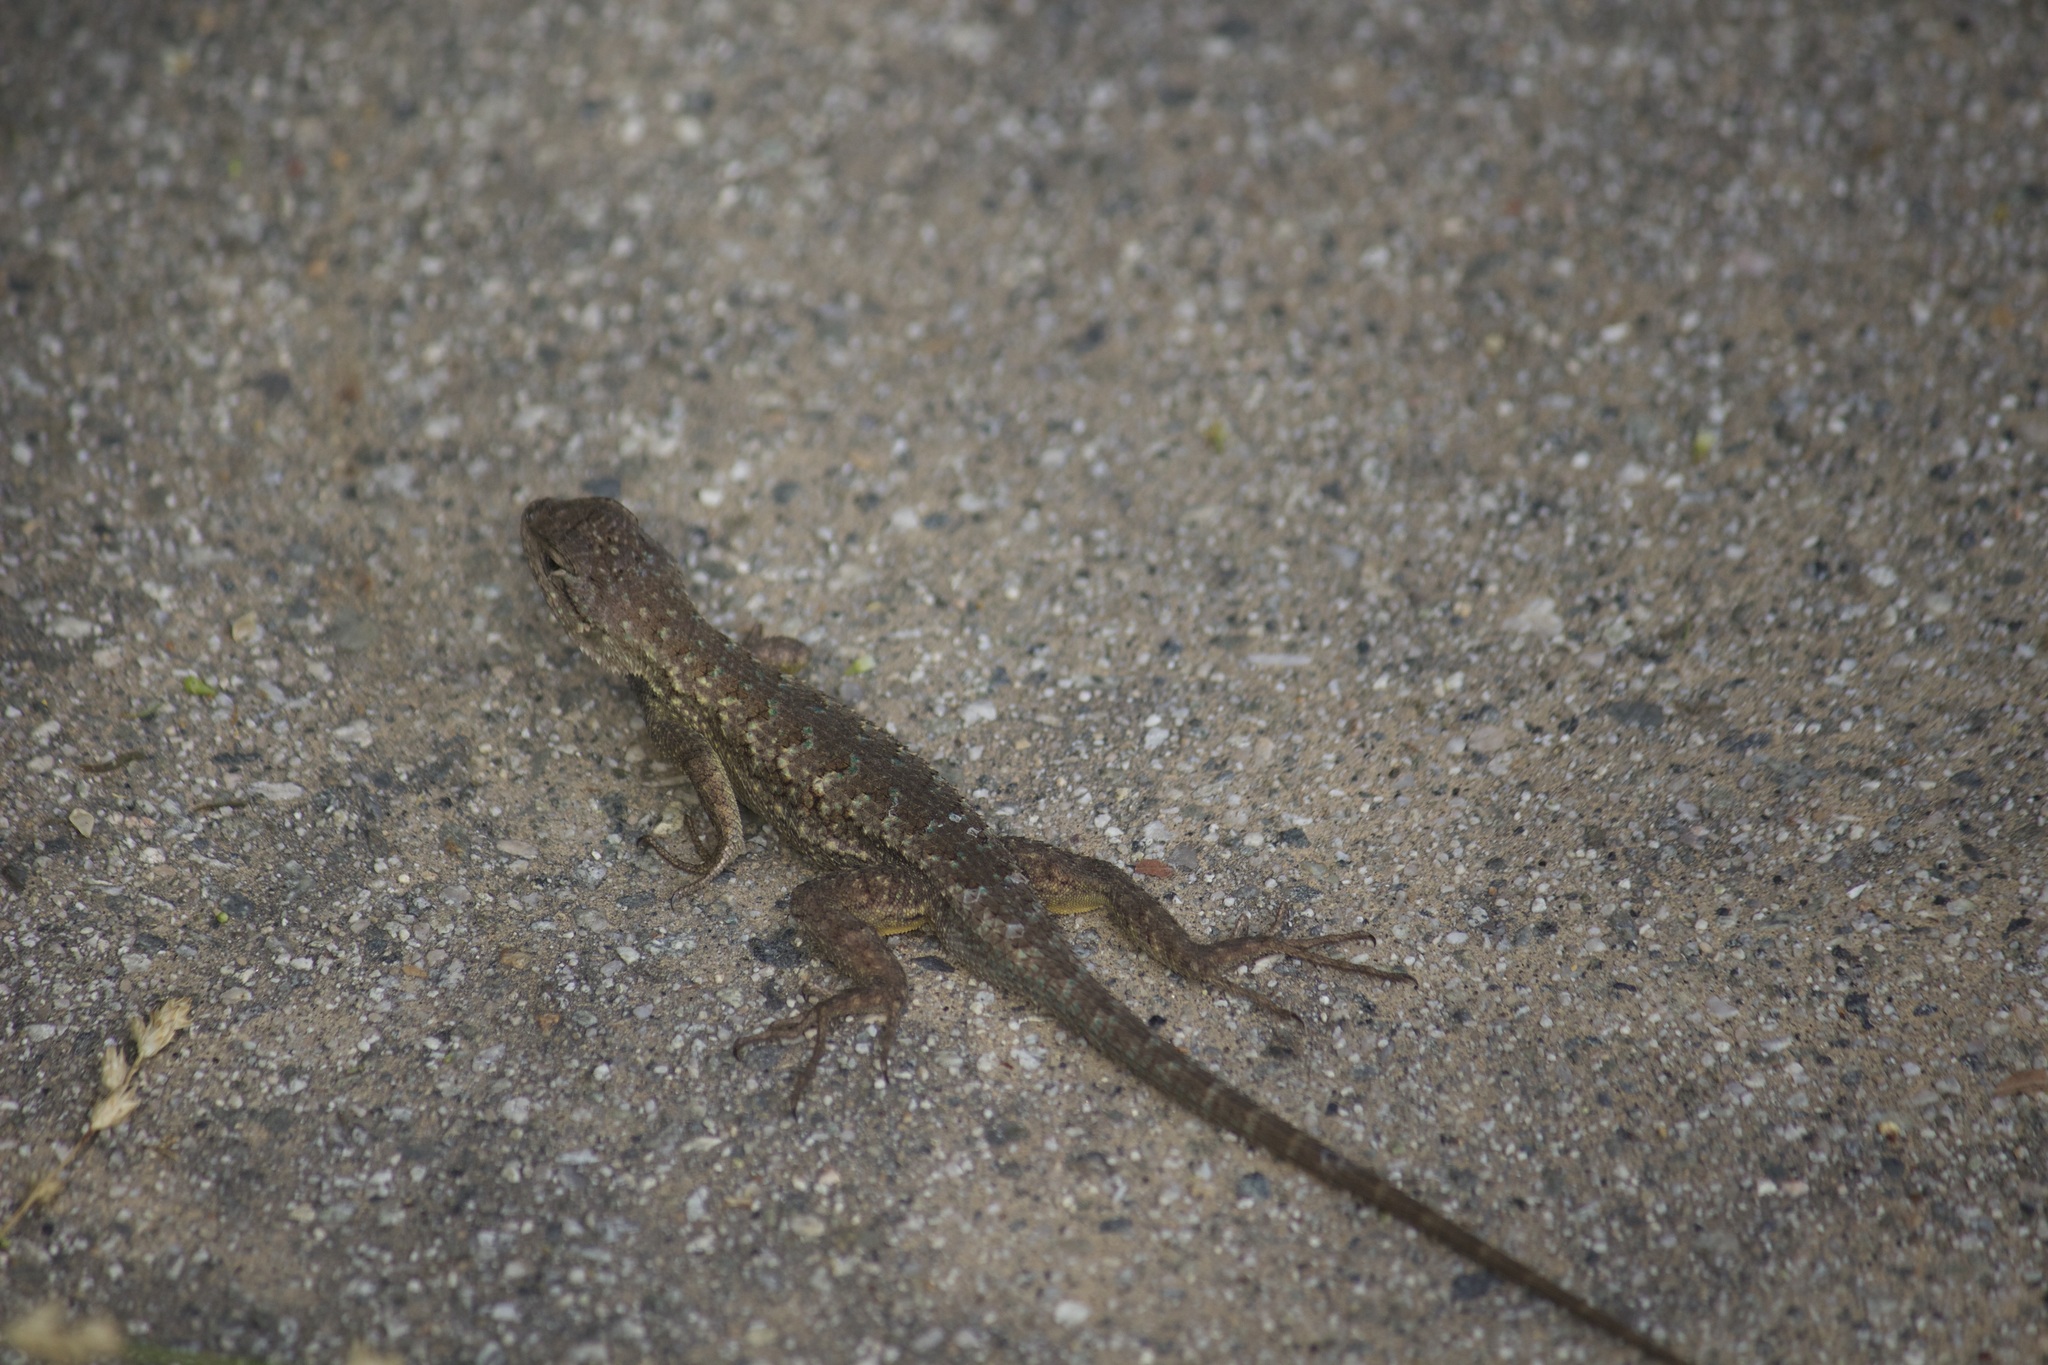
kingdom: Animalia
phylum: Chordata
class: Squamata
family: Phrynosomatidae
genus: Sceloporus
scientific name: Sceloporus occidentalis
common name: Western fence lizard
